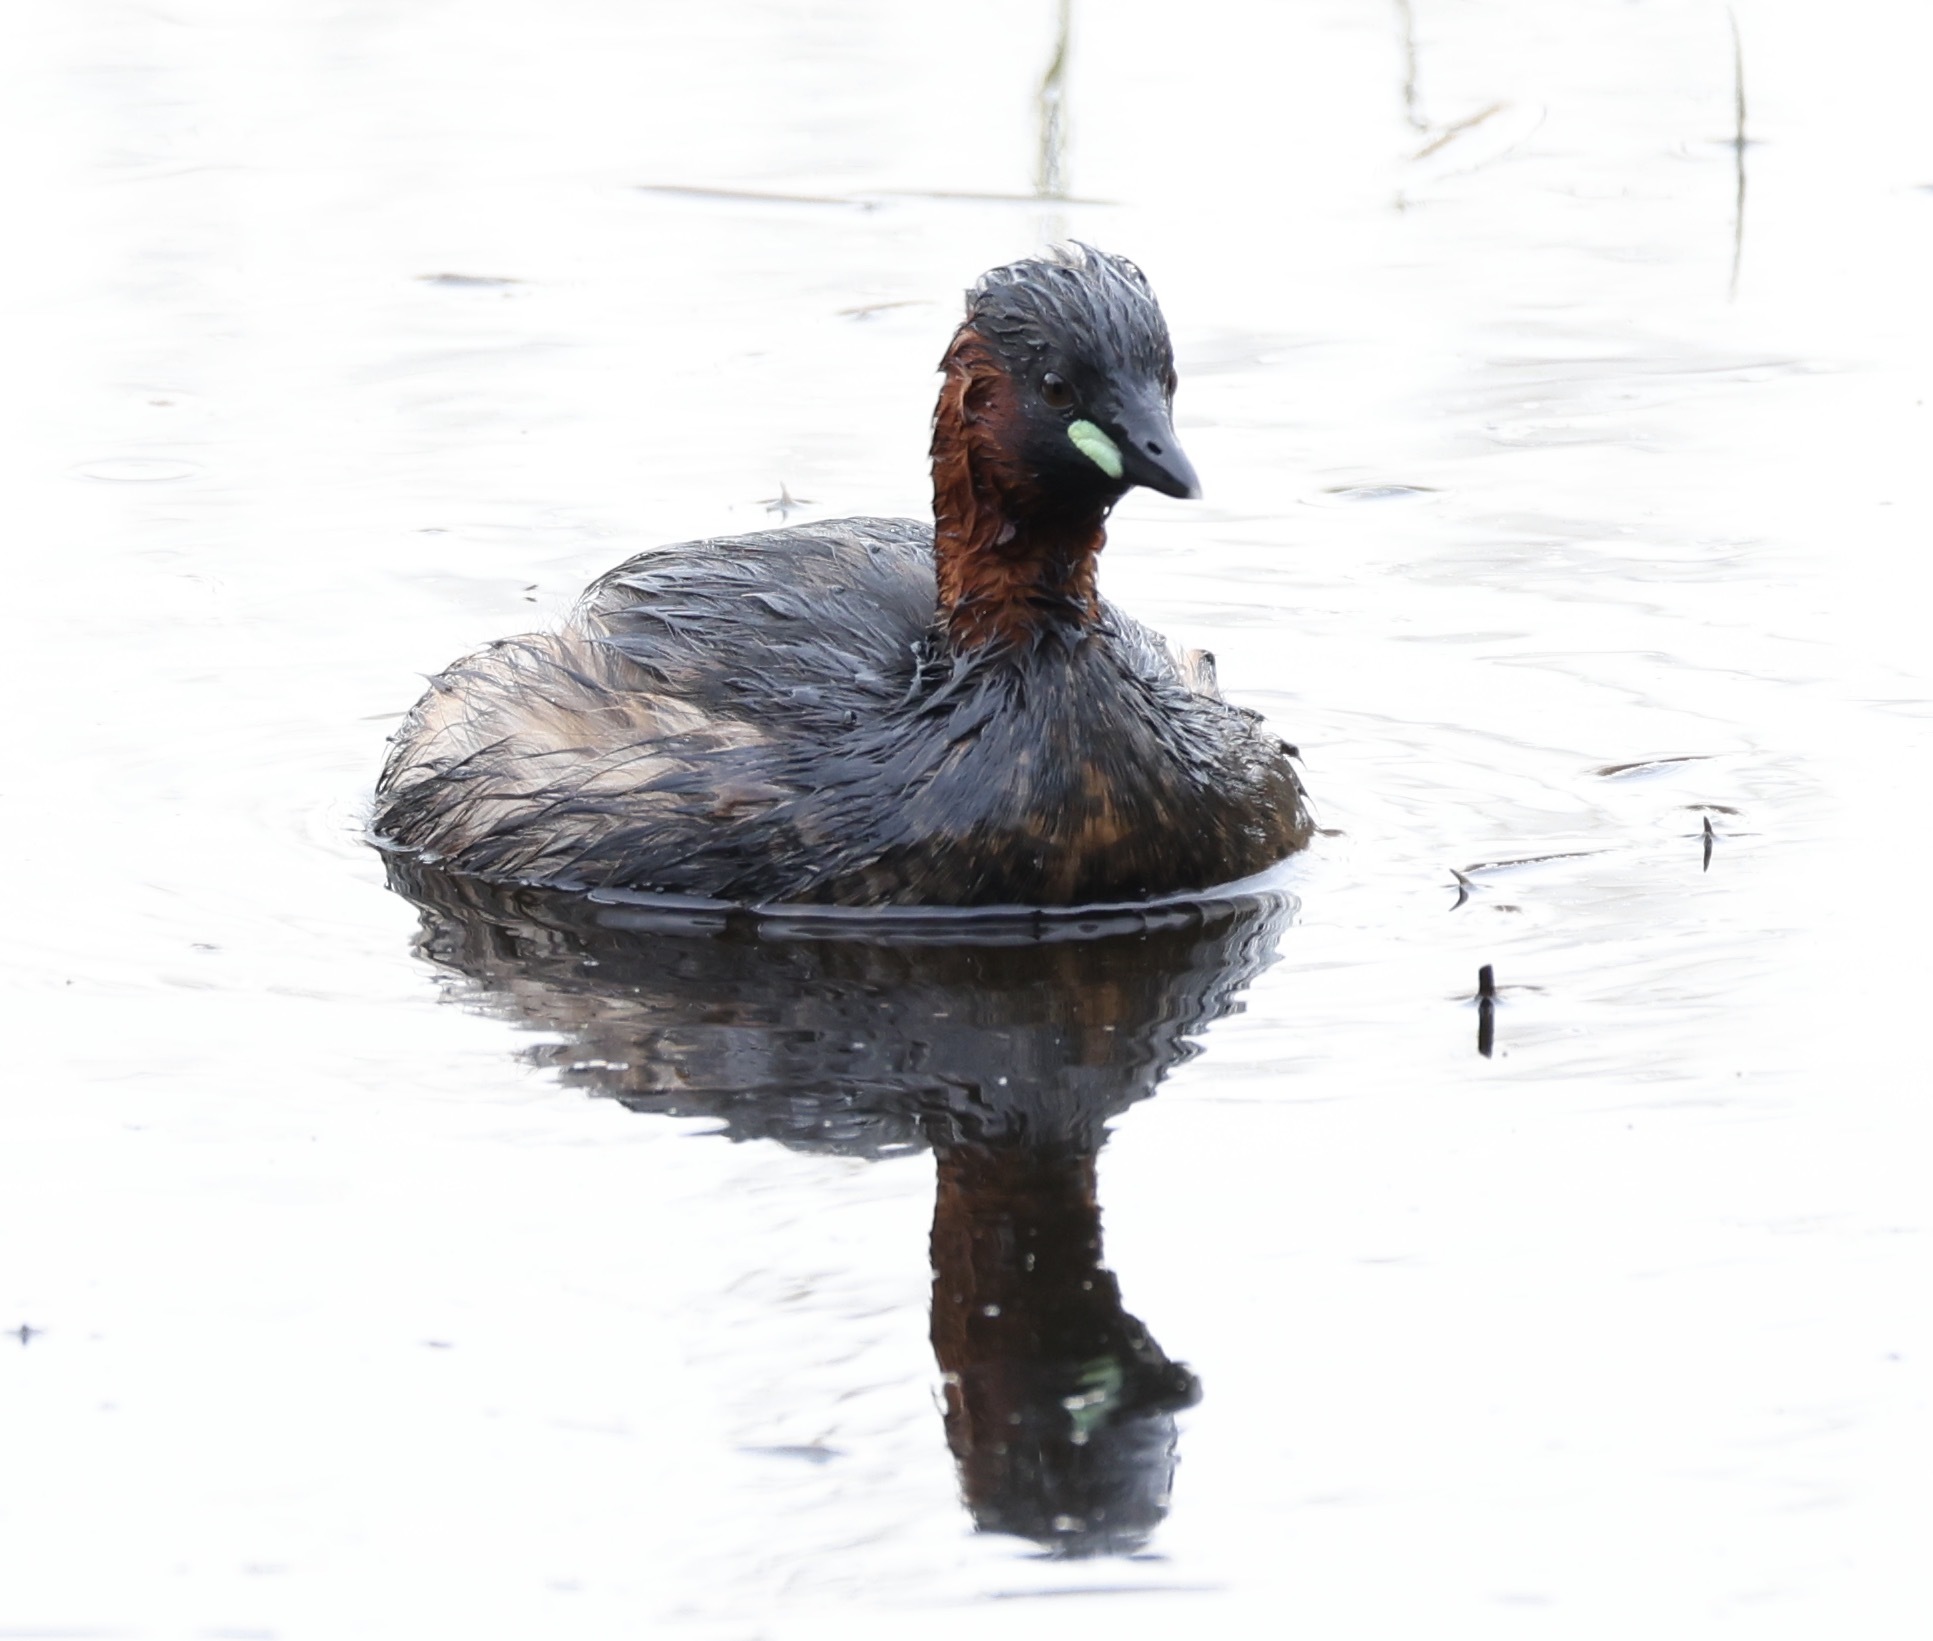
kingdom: Animalia
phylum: Chordata
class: Aves
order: Podicipediformes
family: Podicipedidae
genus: Tachybaptus
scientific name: Tachybaptus ruficollis
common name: Little grebe
